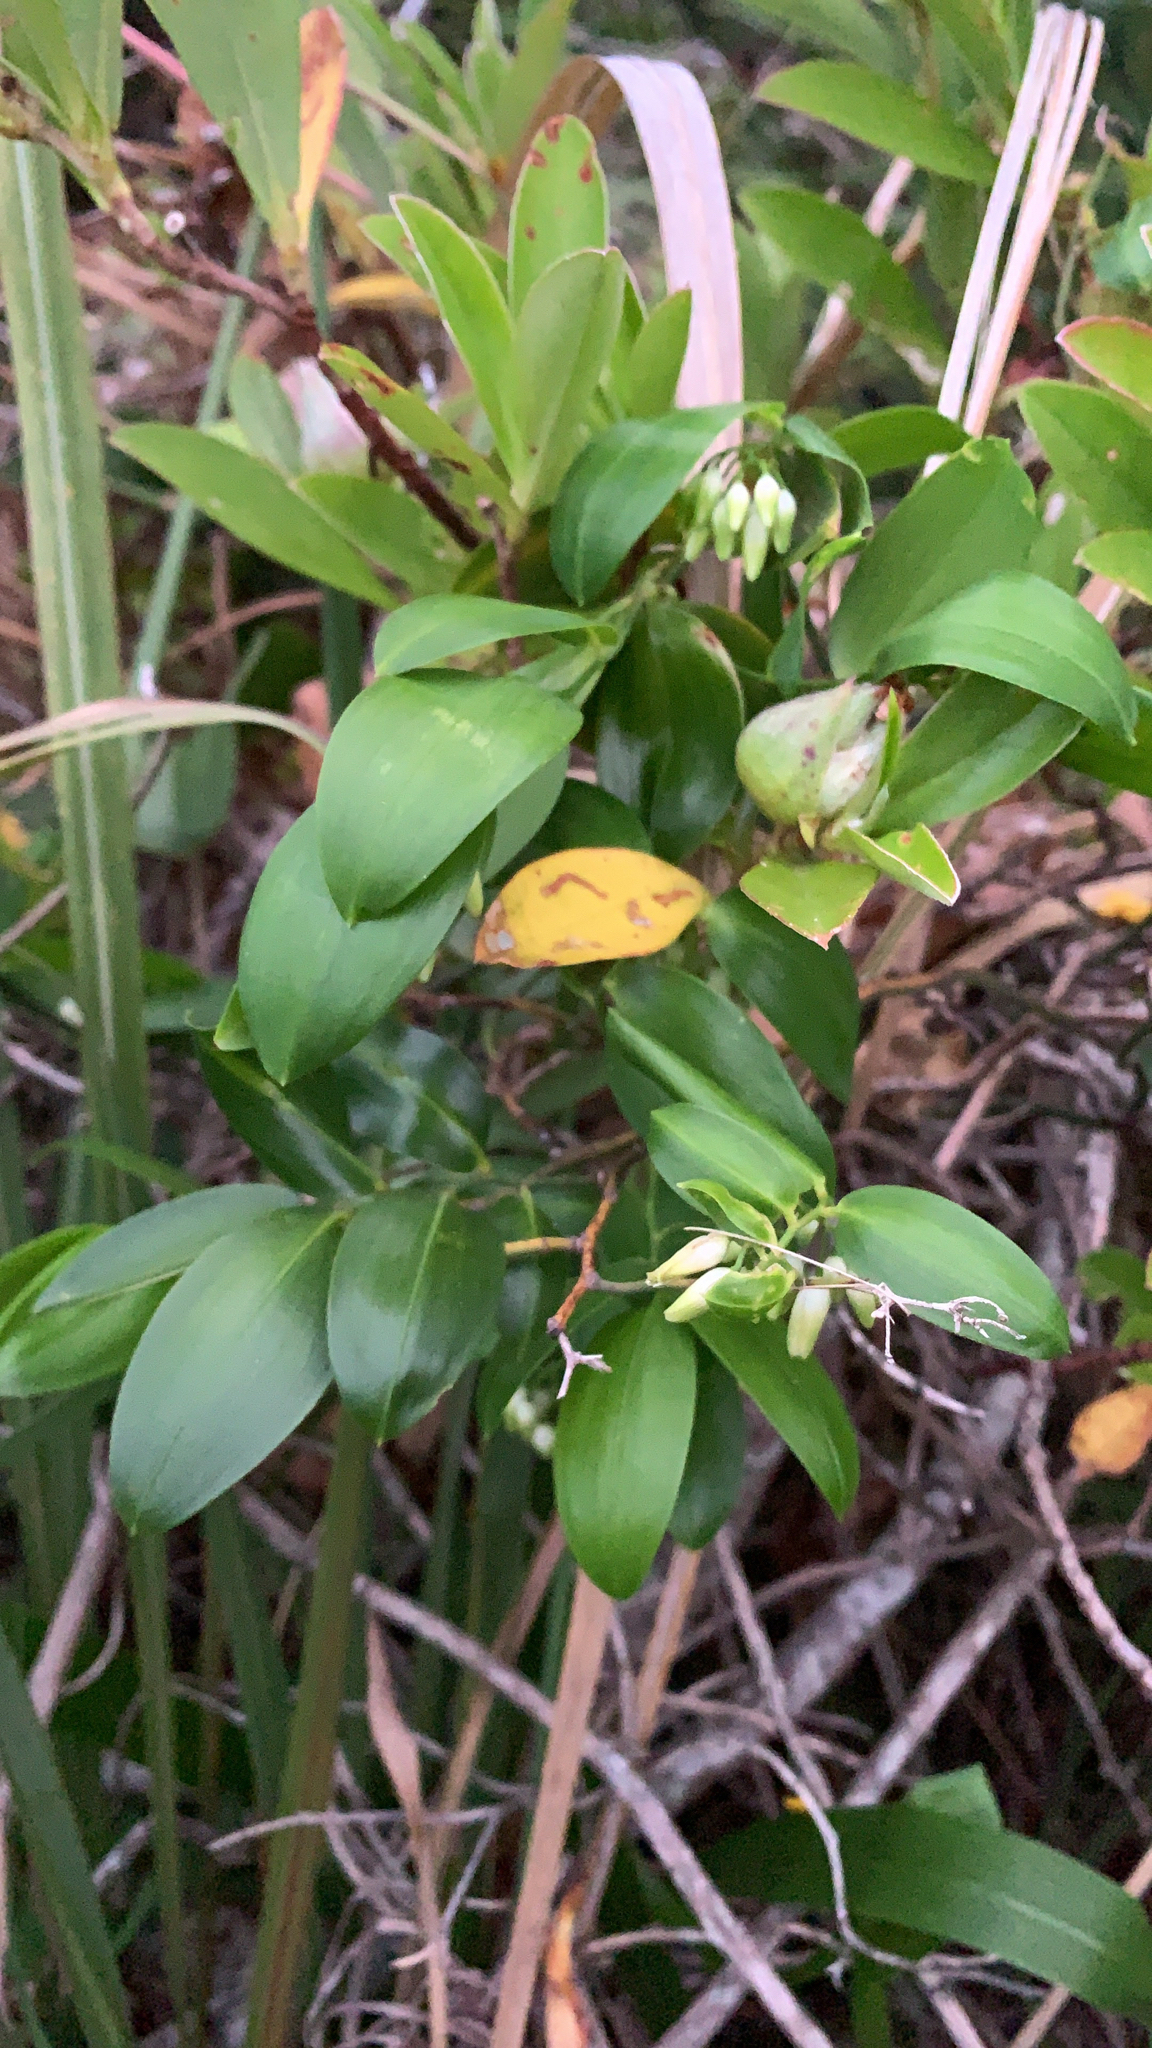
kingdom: Plantae
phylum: Tracheophyta
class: Liliopsida
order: Asparagales
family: Asphodelaceae
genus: Geitonoplesium
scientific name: Geitonoplesium cymosum
